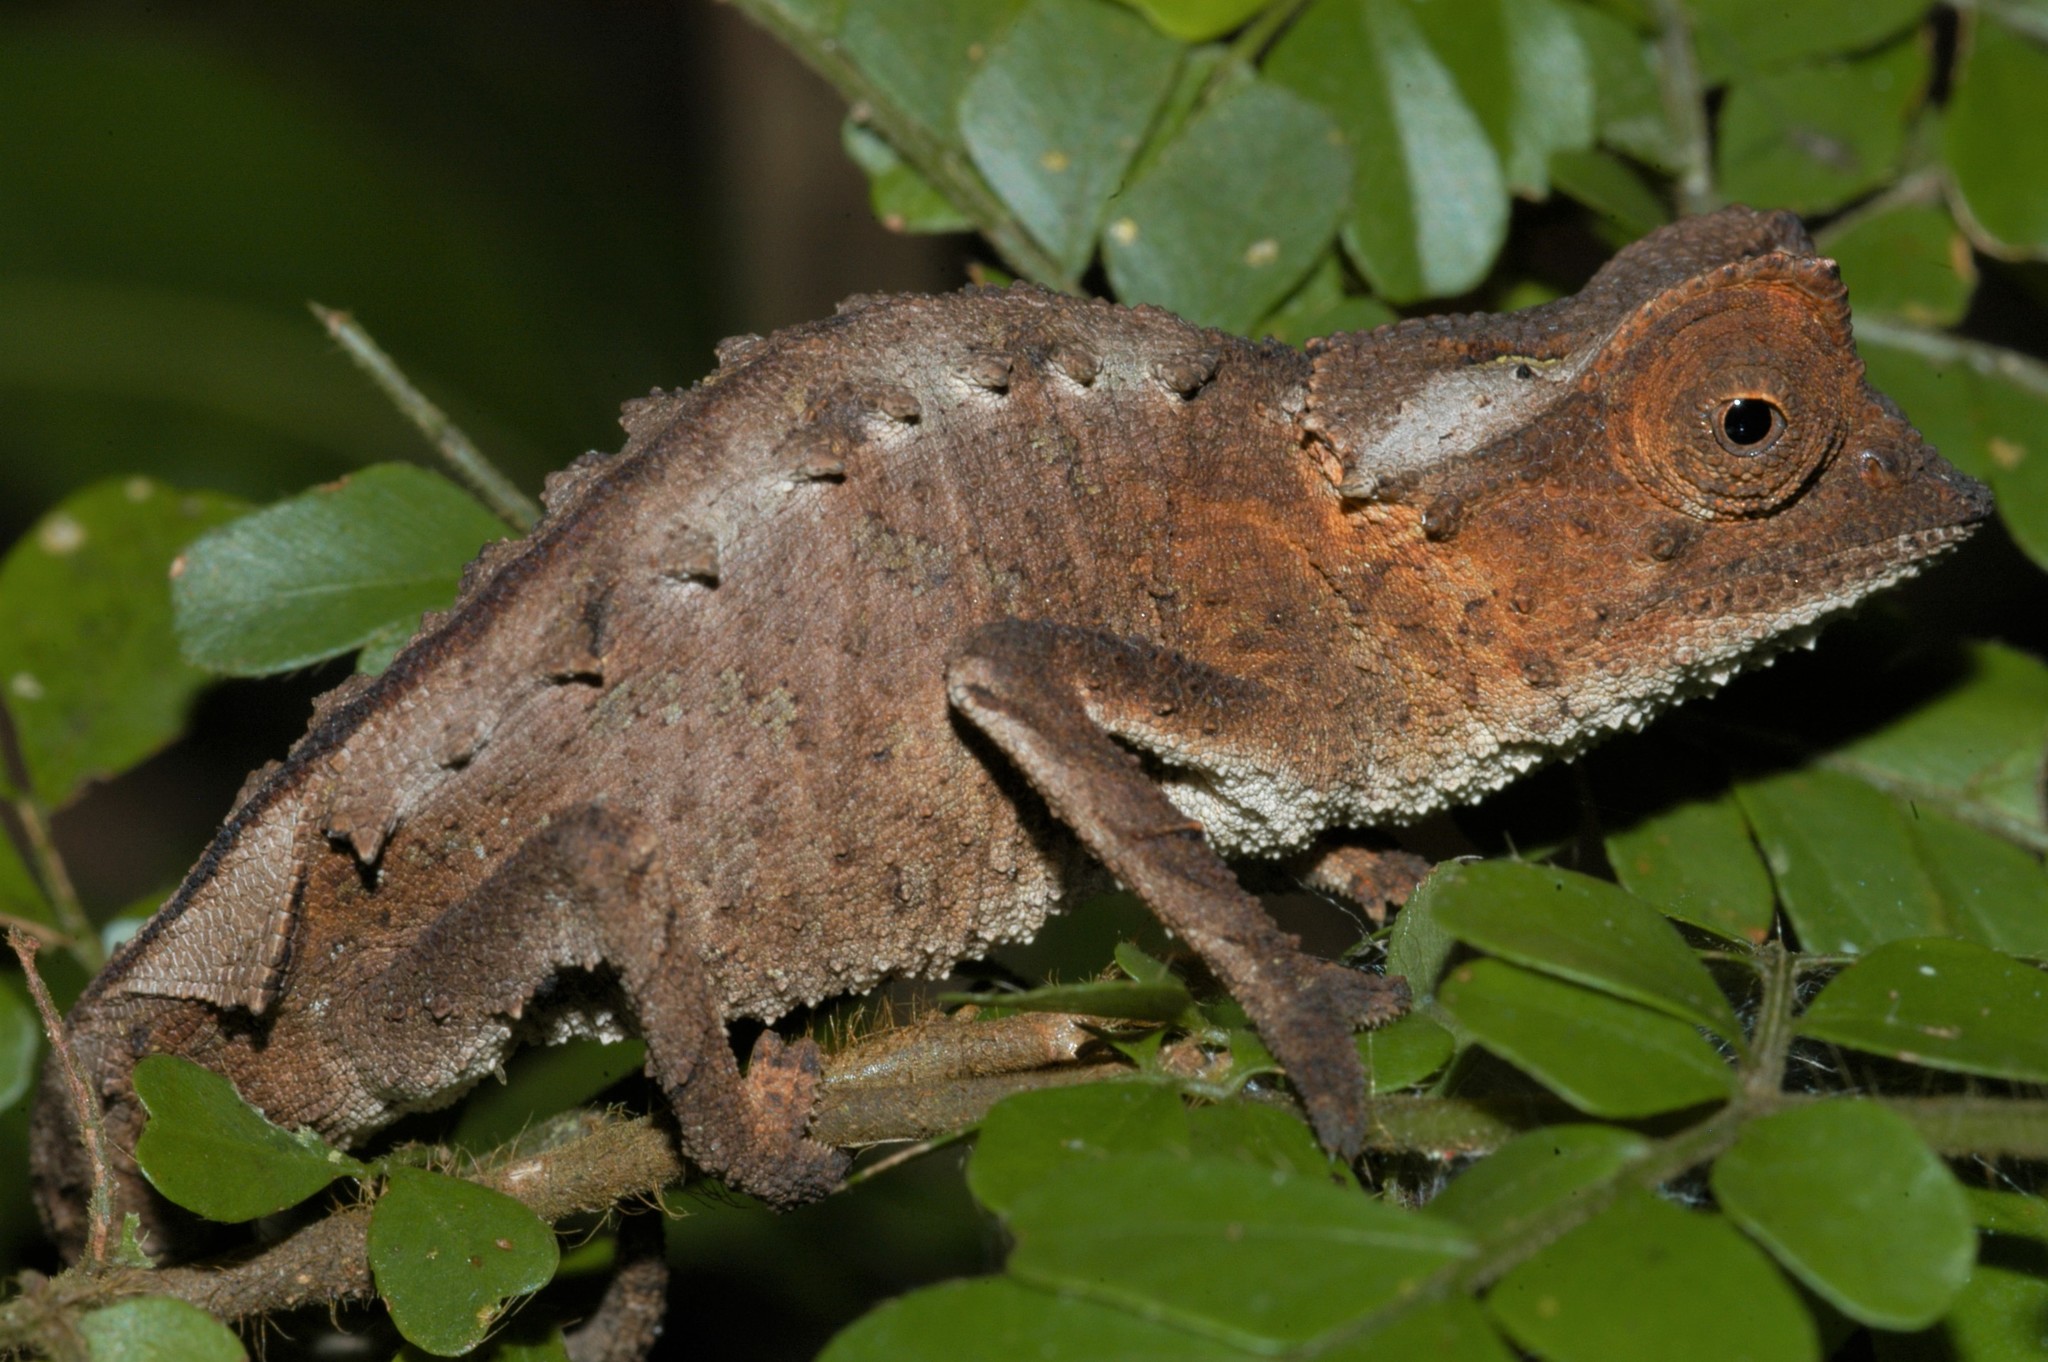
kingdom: Animalia
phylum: Chordata
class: Squamata
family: Chamaeleonidae
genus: Brookesia
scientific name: Brookesia stumpffi
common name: Plated leaf chameleon
